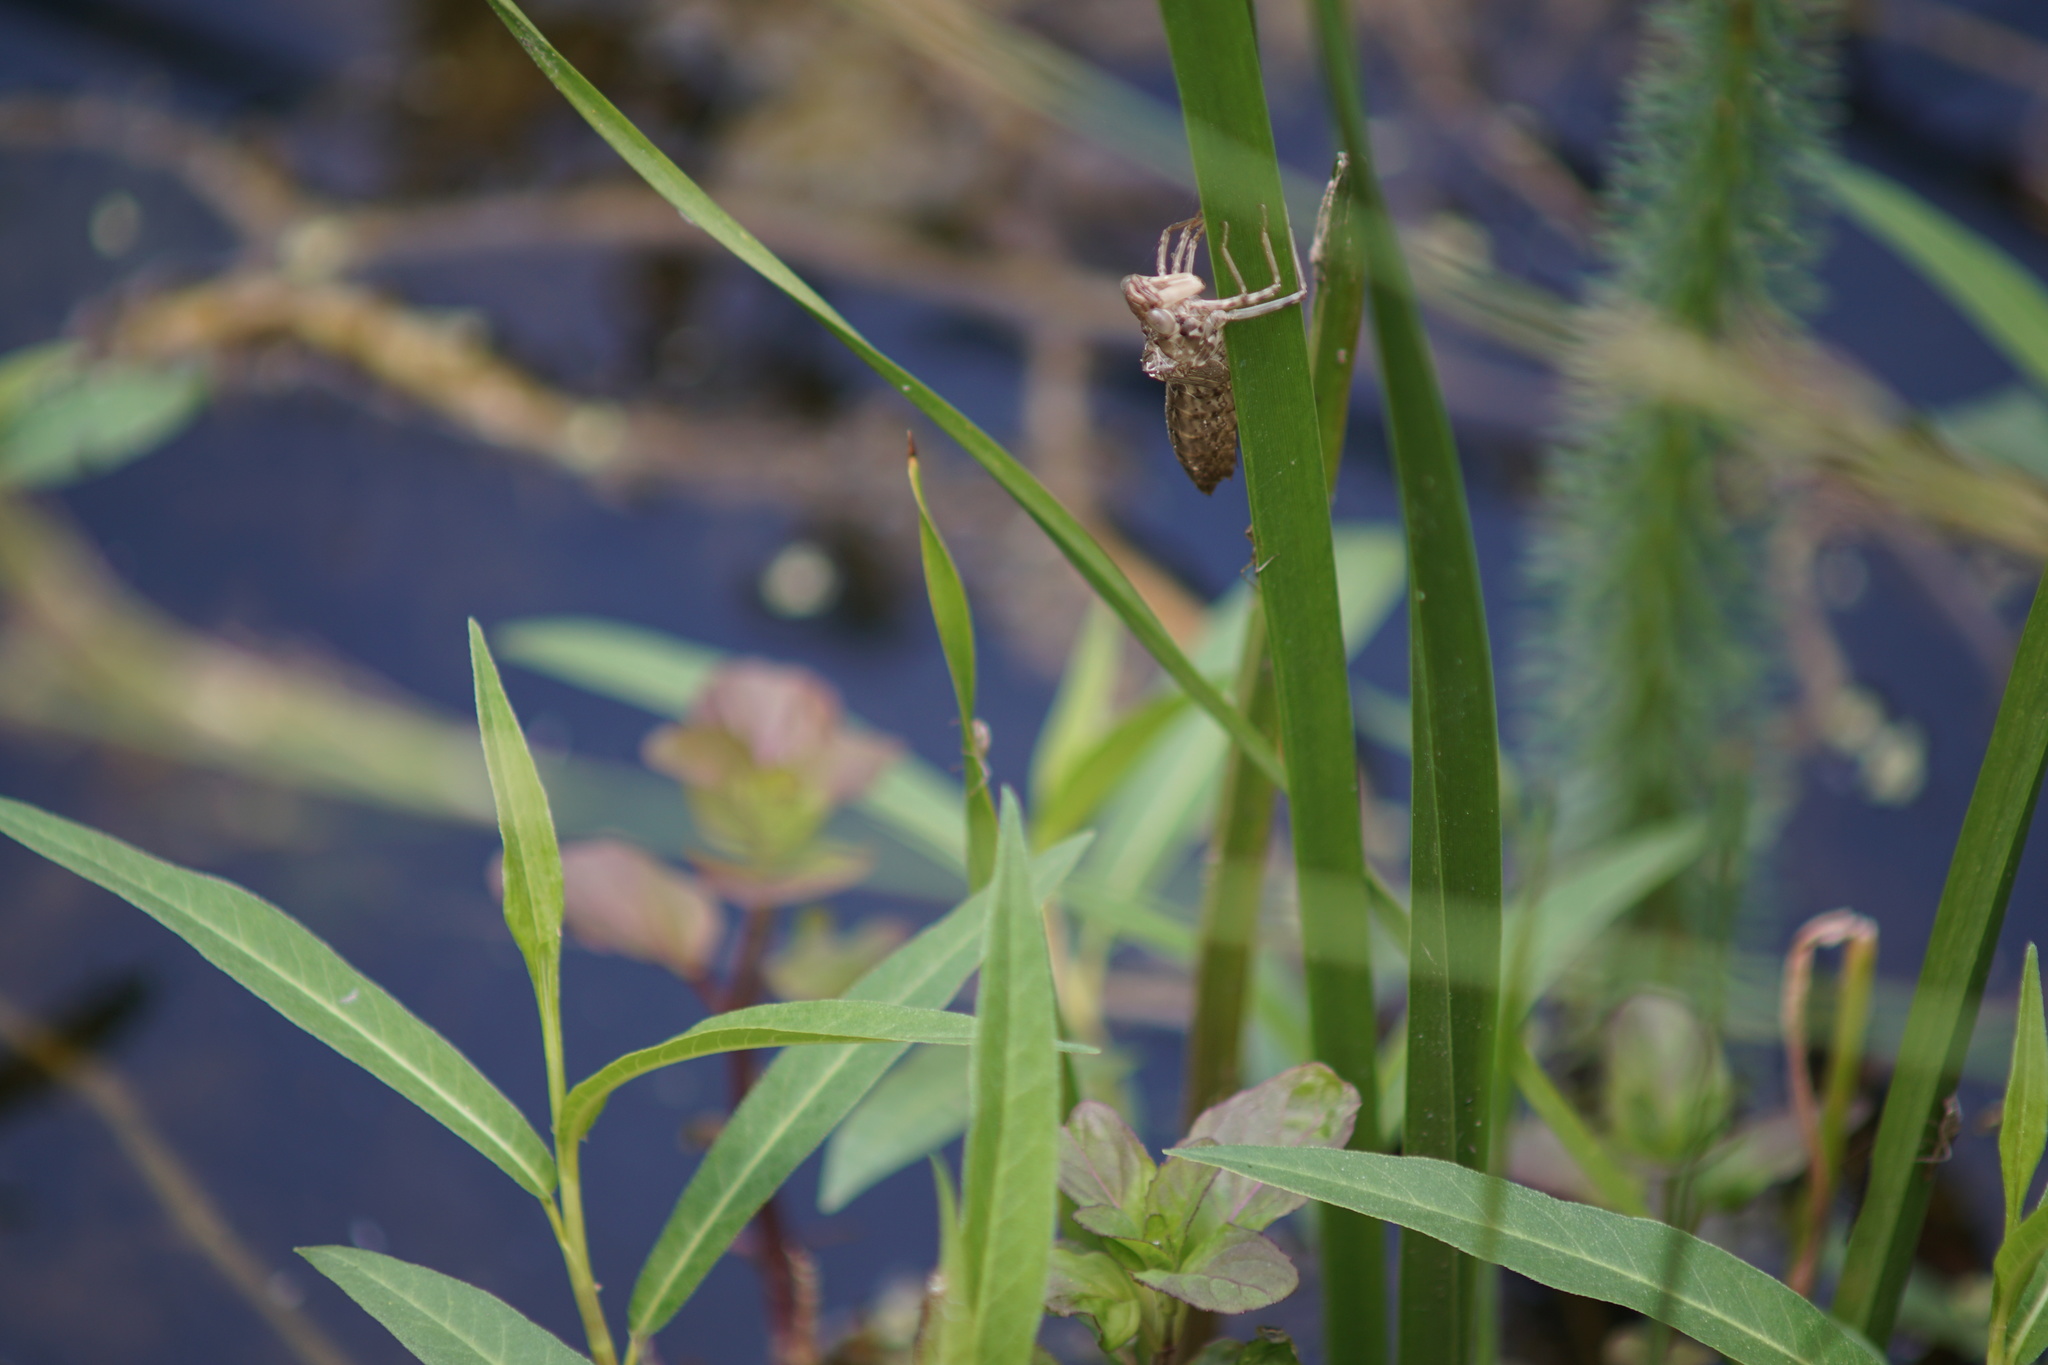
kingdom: Animalia
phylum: Arthropoda
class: Insecta
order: Odonata
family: Aeshnidae
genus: Anax
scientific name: Anax
